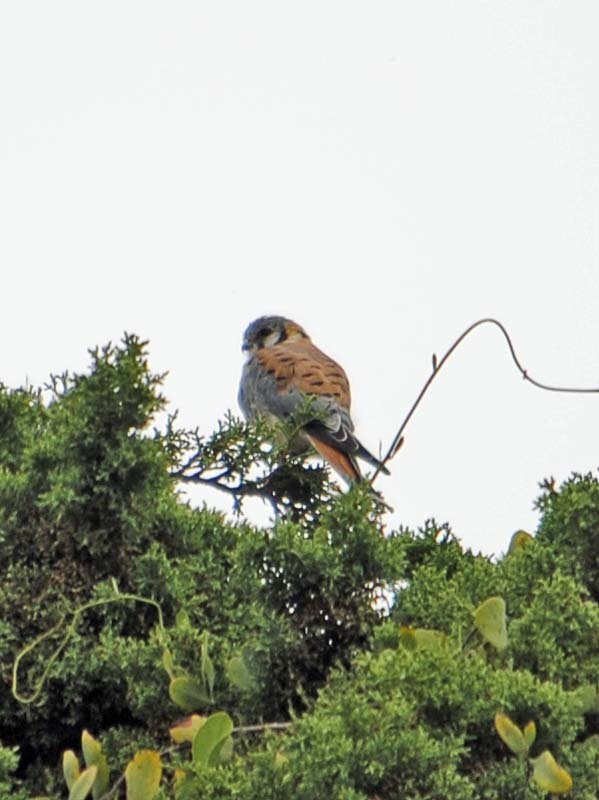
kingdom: Animalia
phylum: Chordata
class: Aves
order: Falconiformes
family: Falconidae
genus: Falco
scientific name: Falco sparverius
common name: American kestrel
